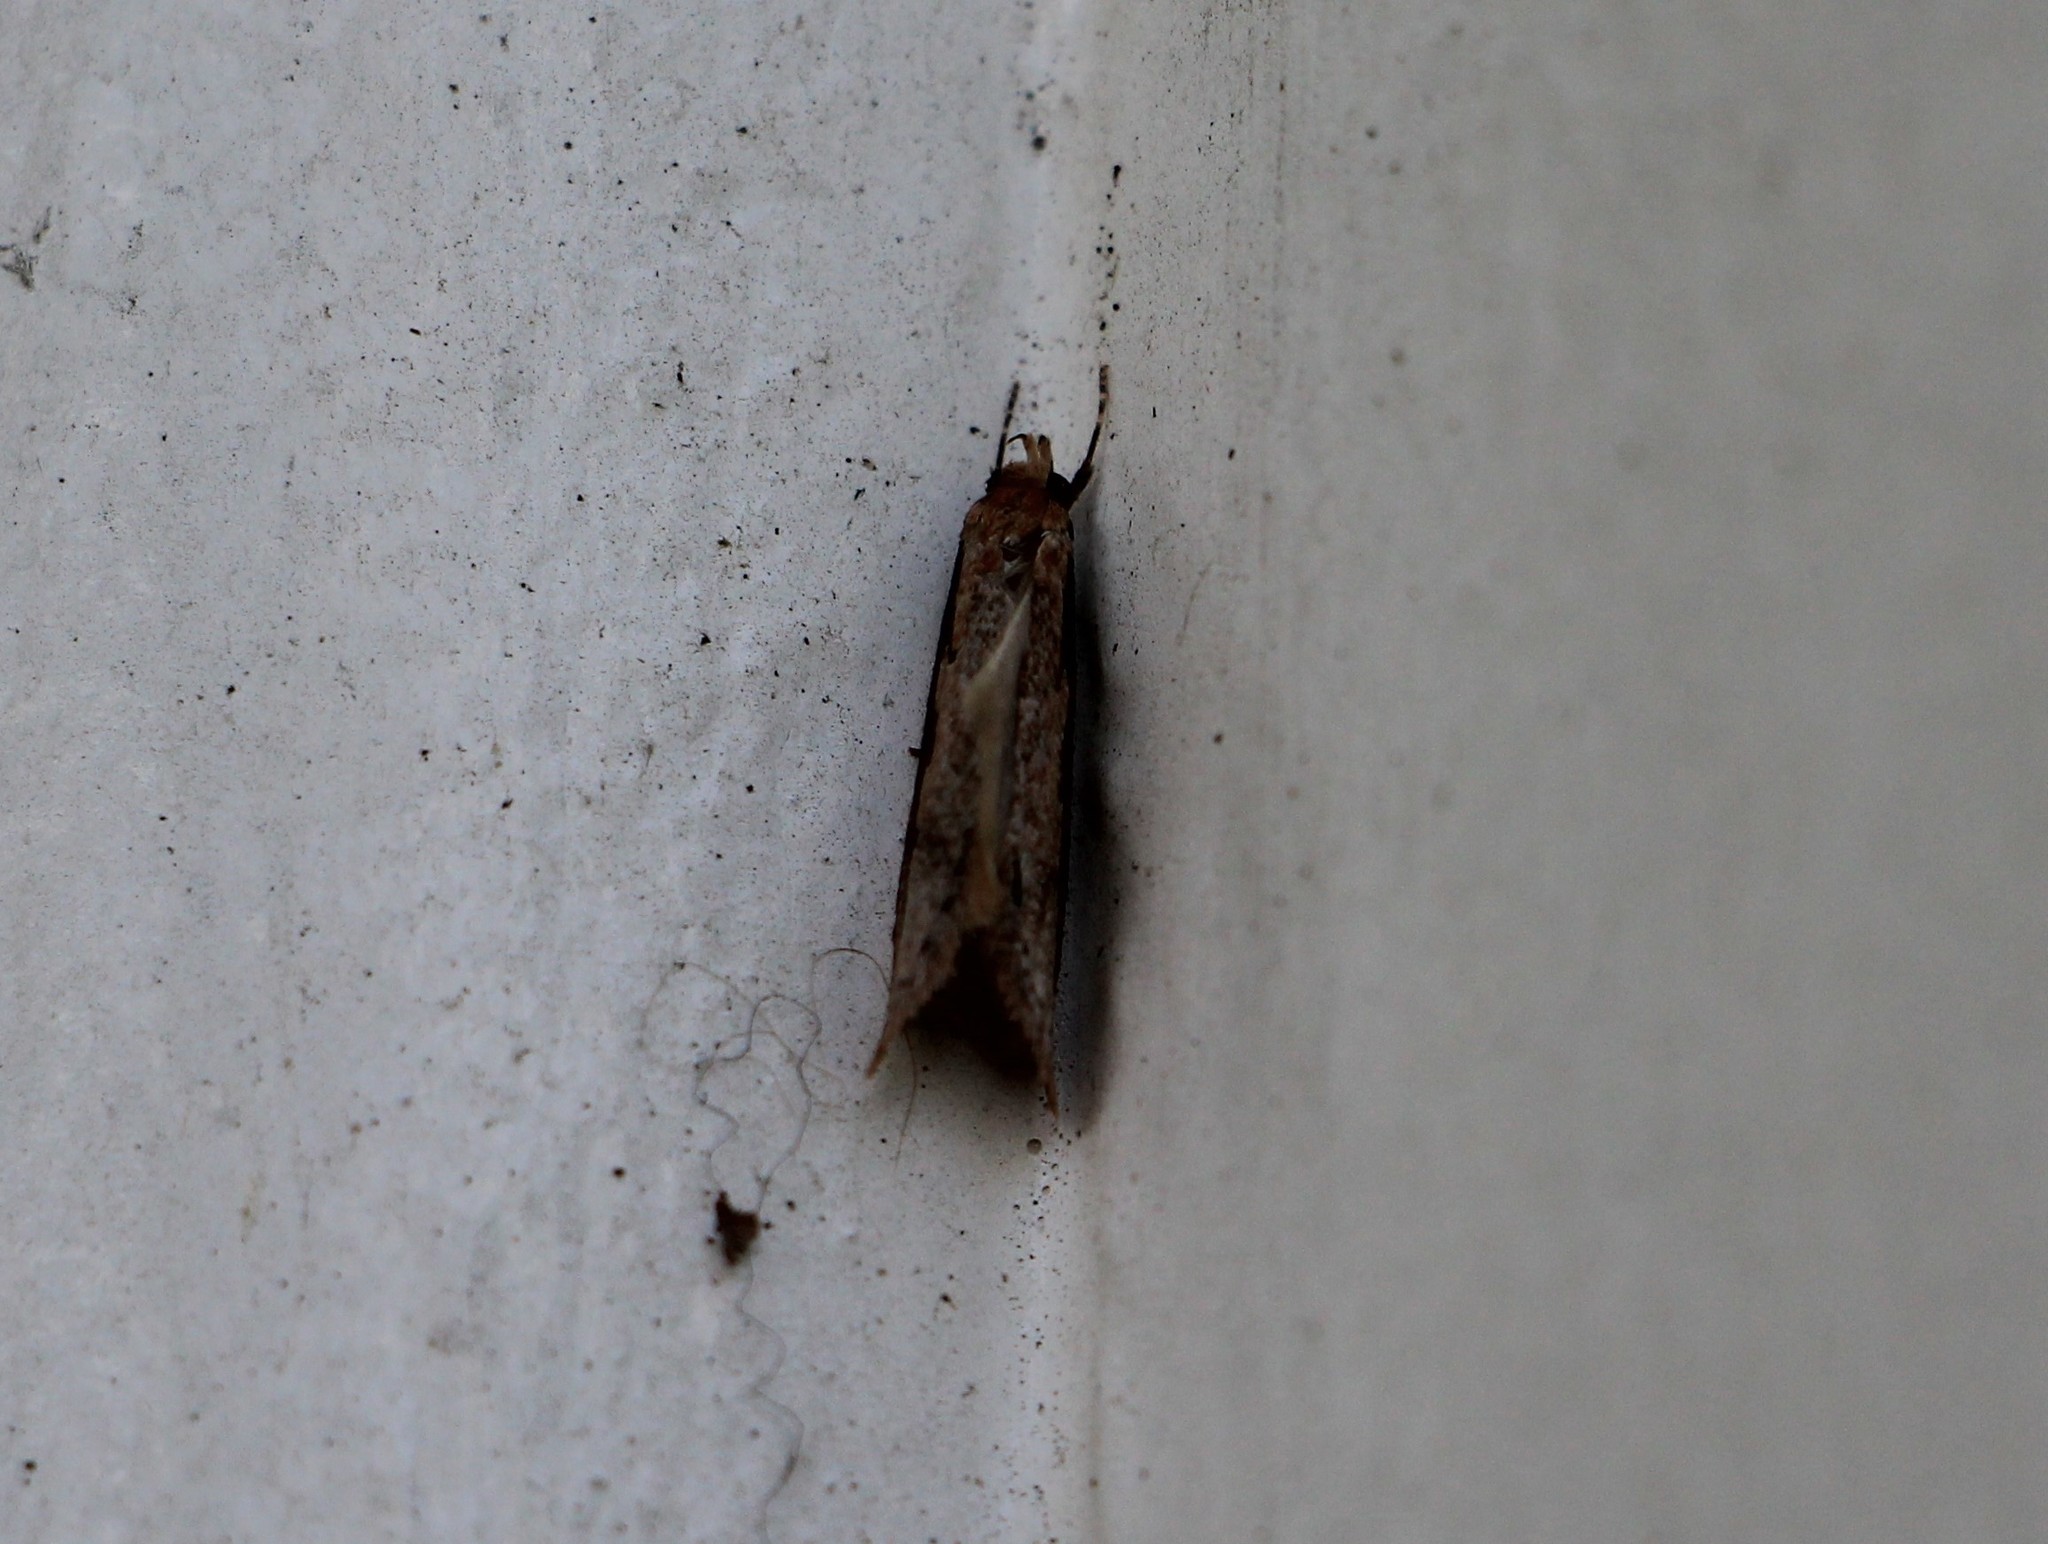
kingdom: Animalia
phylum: Arthropoda
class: Insecta
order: Lepidoptera
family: Oecophoridae
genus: Leptocroca
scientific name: Leptocroca sanguinolenta
